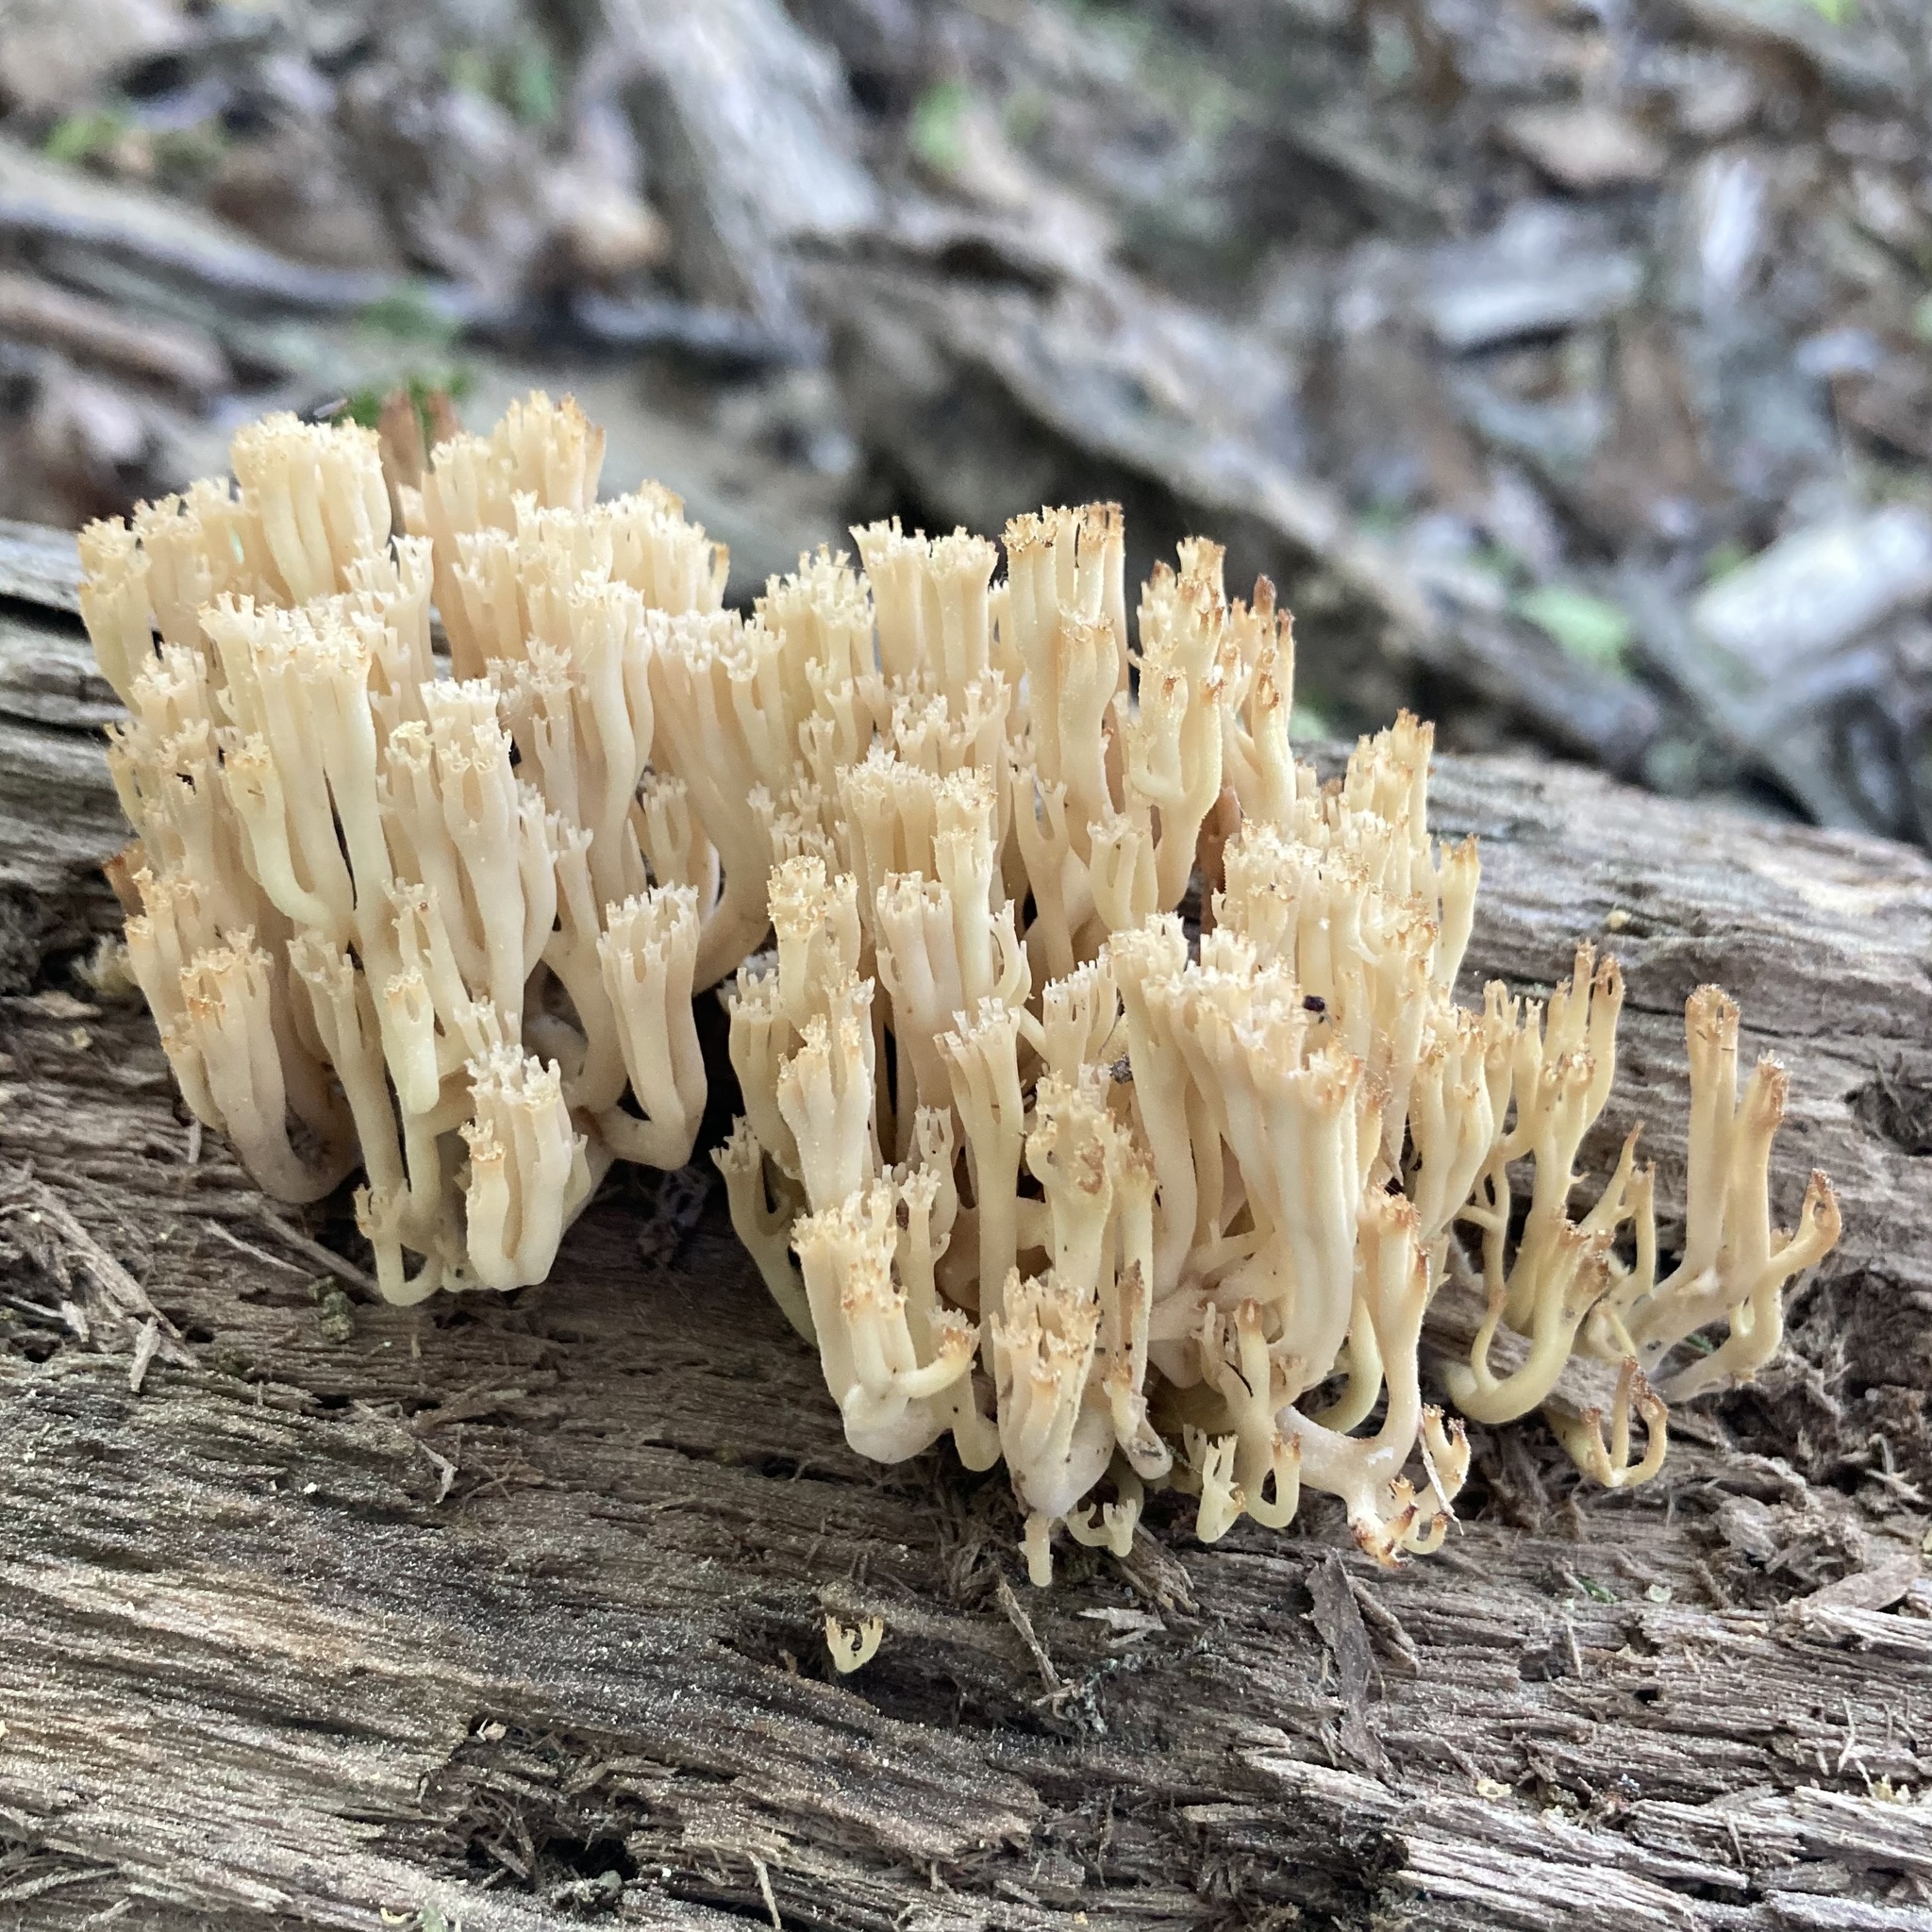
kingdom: Fungi
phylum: Basidiomycota
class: Agaricomycetes
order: Russulales
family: Auriscalpiaceae
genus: Artomyces
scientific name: Artomyces pyxidatus
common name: Crown-tipped coral fungus
